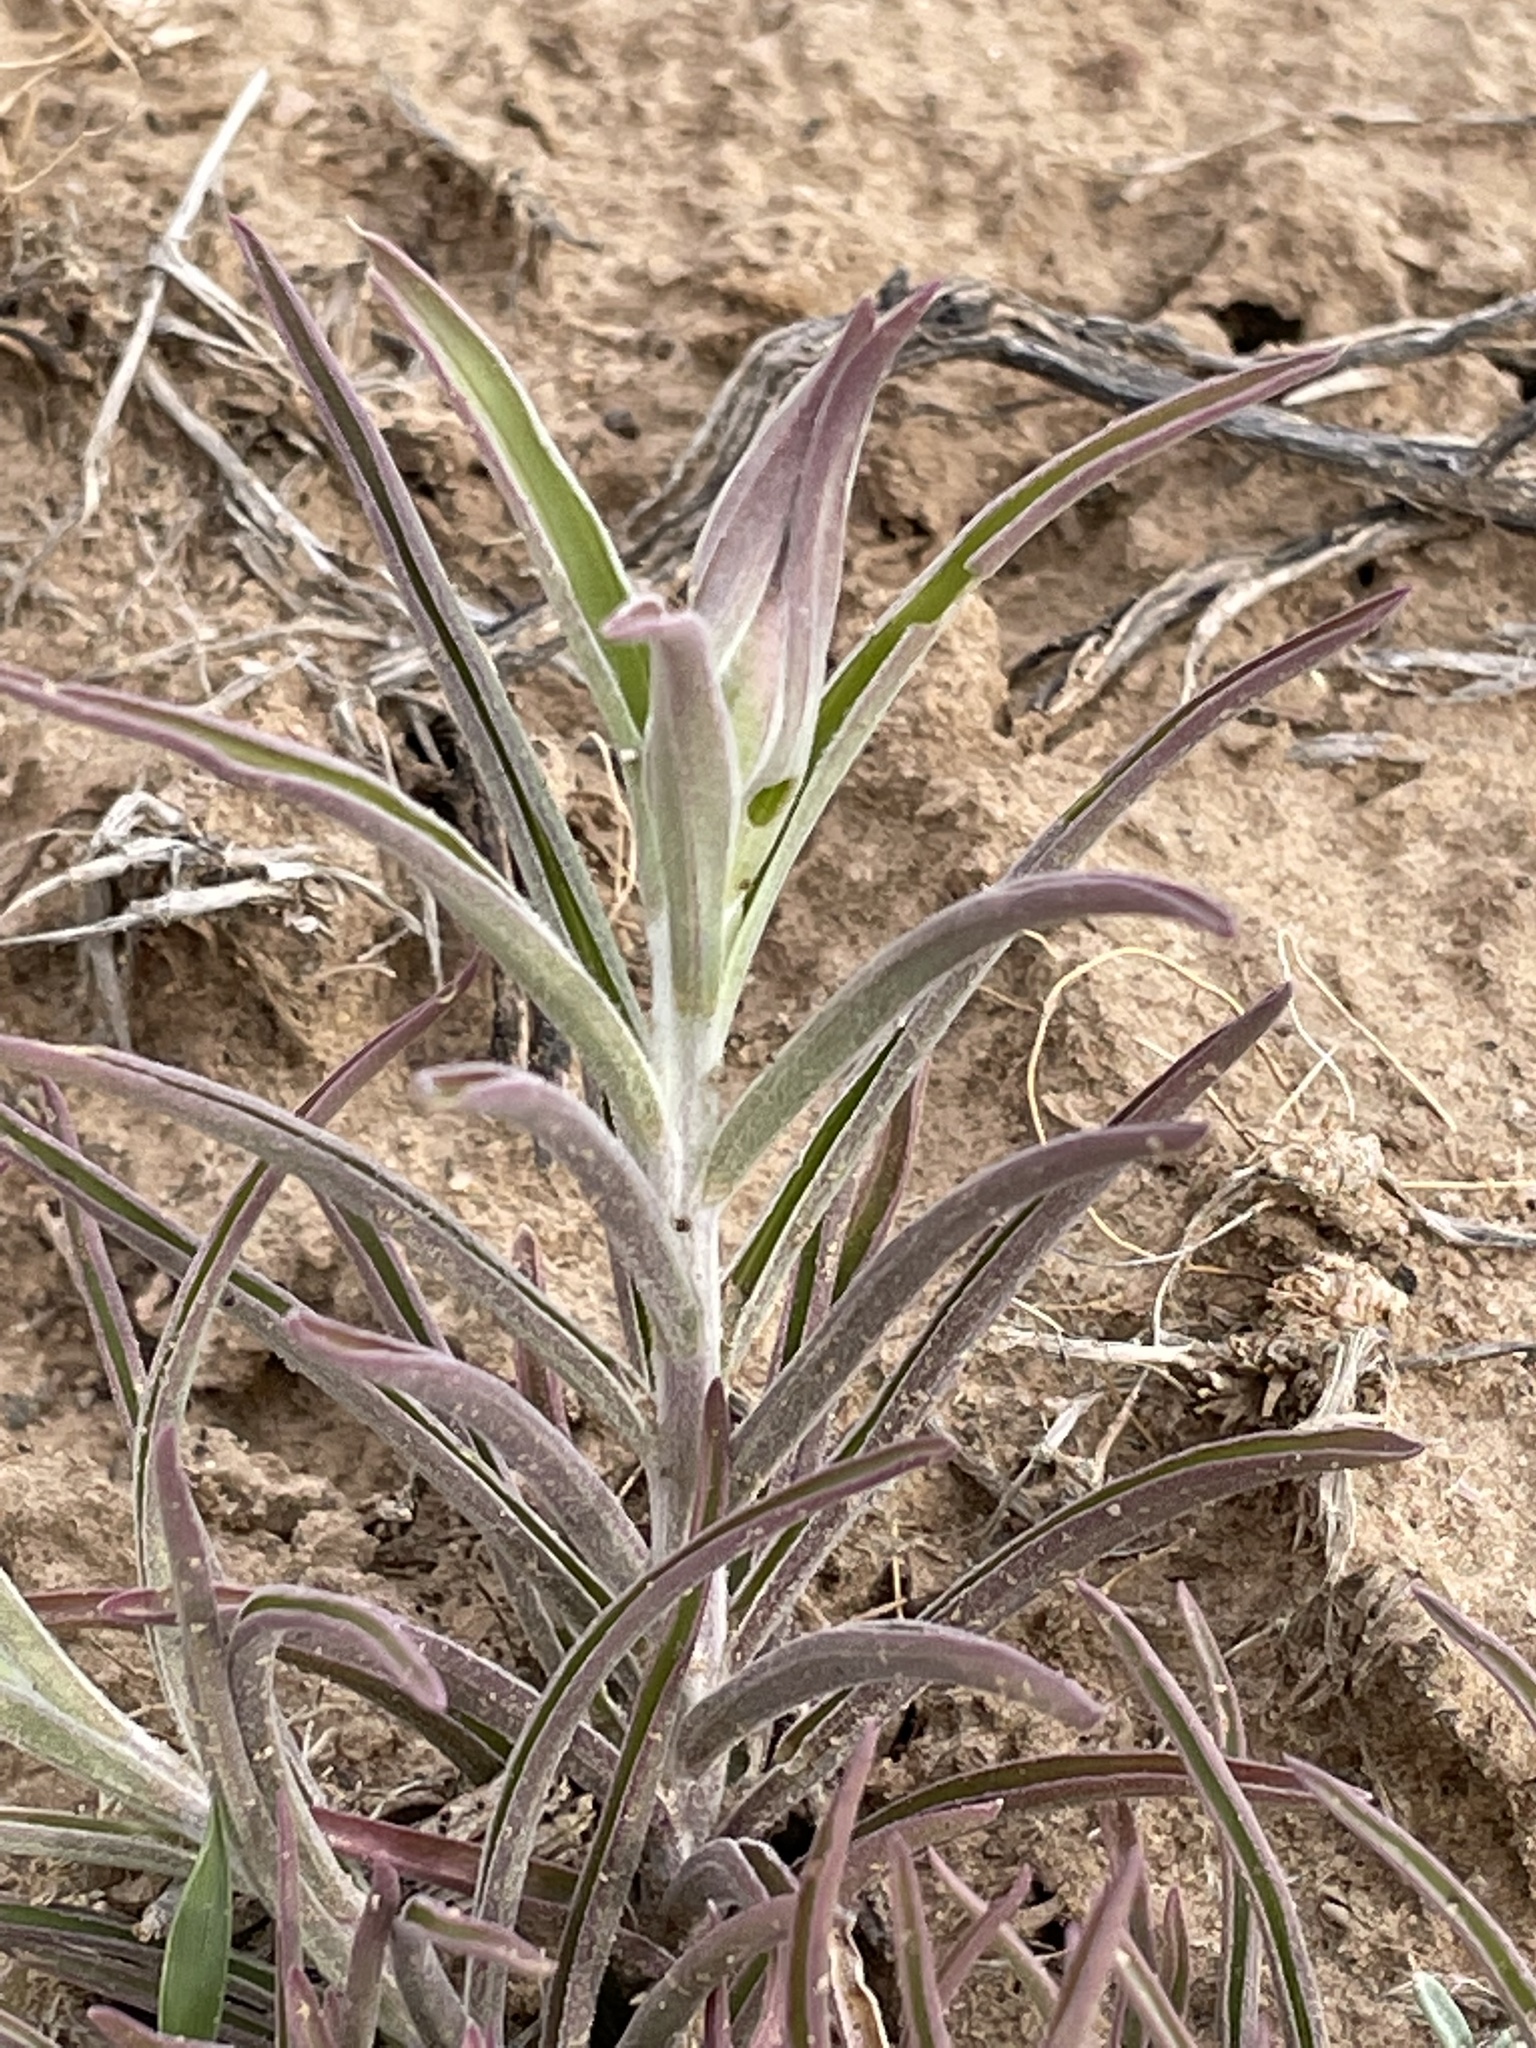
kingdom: Plantae
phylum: Tracheophyta
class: Magnoliopsida
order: Lamiales
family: Orobanchaceae
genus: Castilleja
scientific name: Castilleja integra
